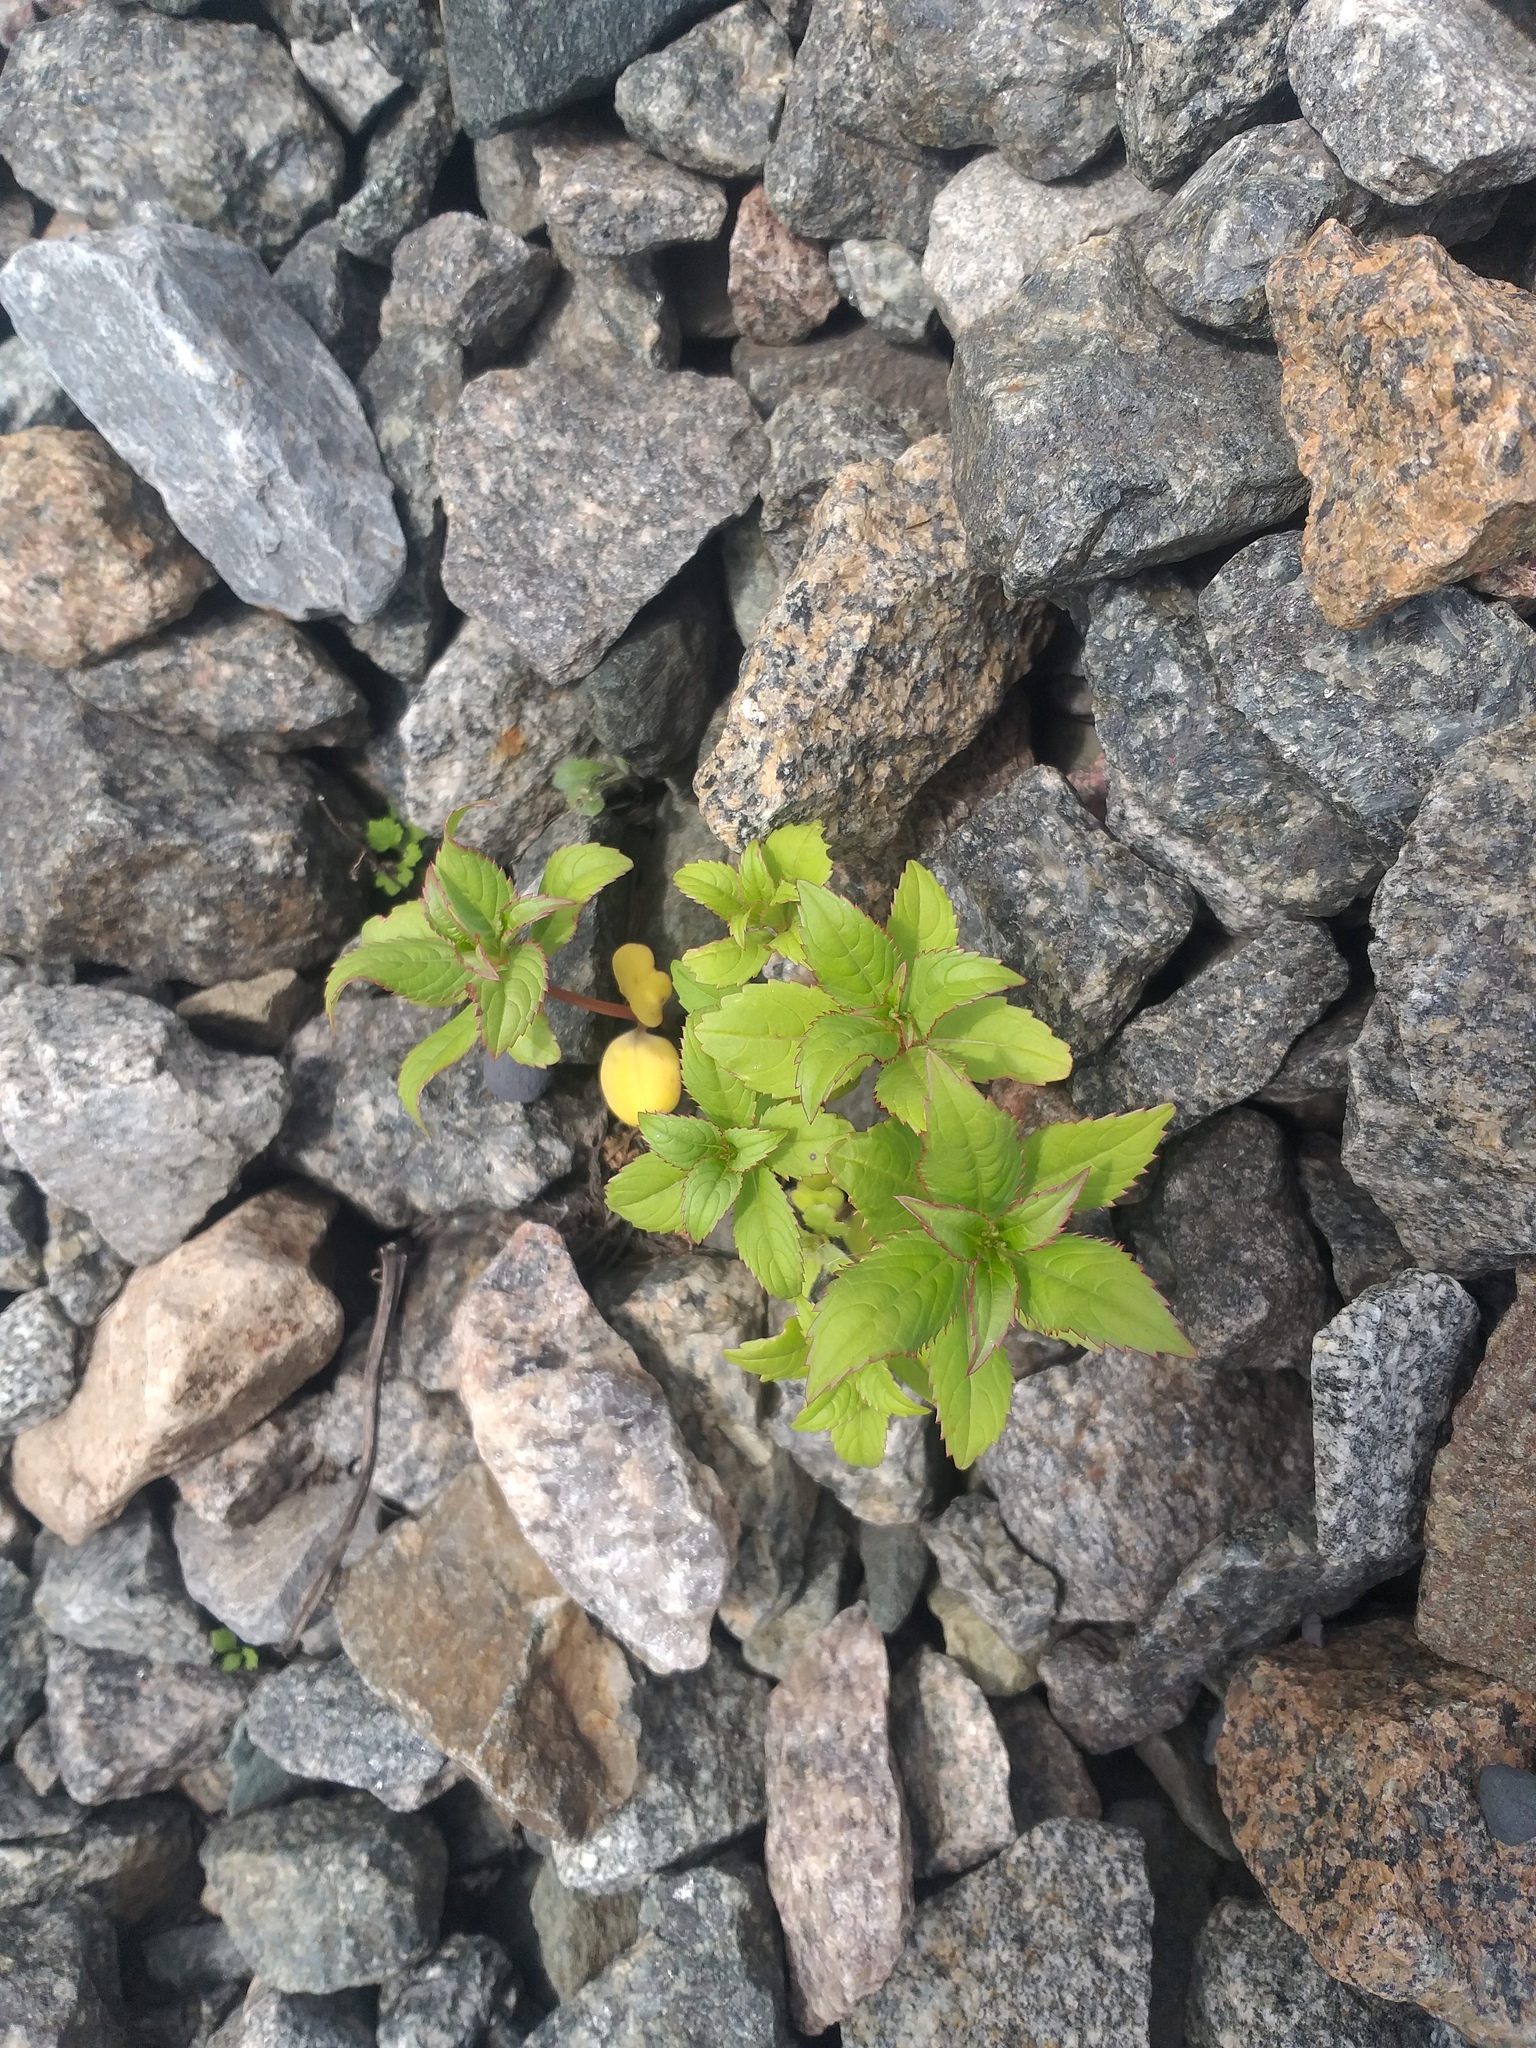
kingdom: Plantae
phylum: Tracheophyta
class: Magnoliopsida
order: Ericales
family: Balsaminaceae
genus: Impatiens
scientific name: Impatiens glandulifera
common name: Himalayan balsam
